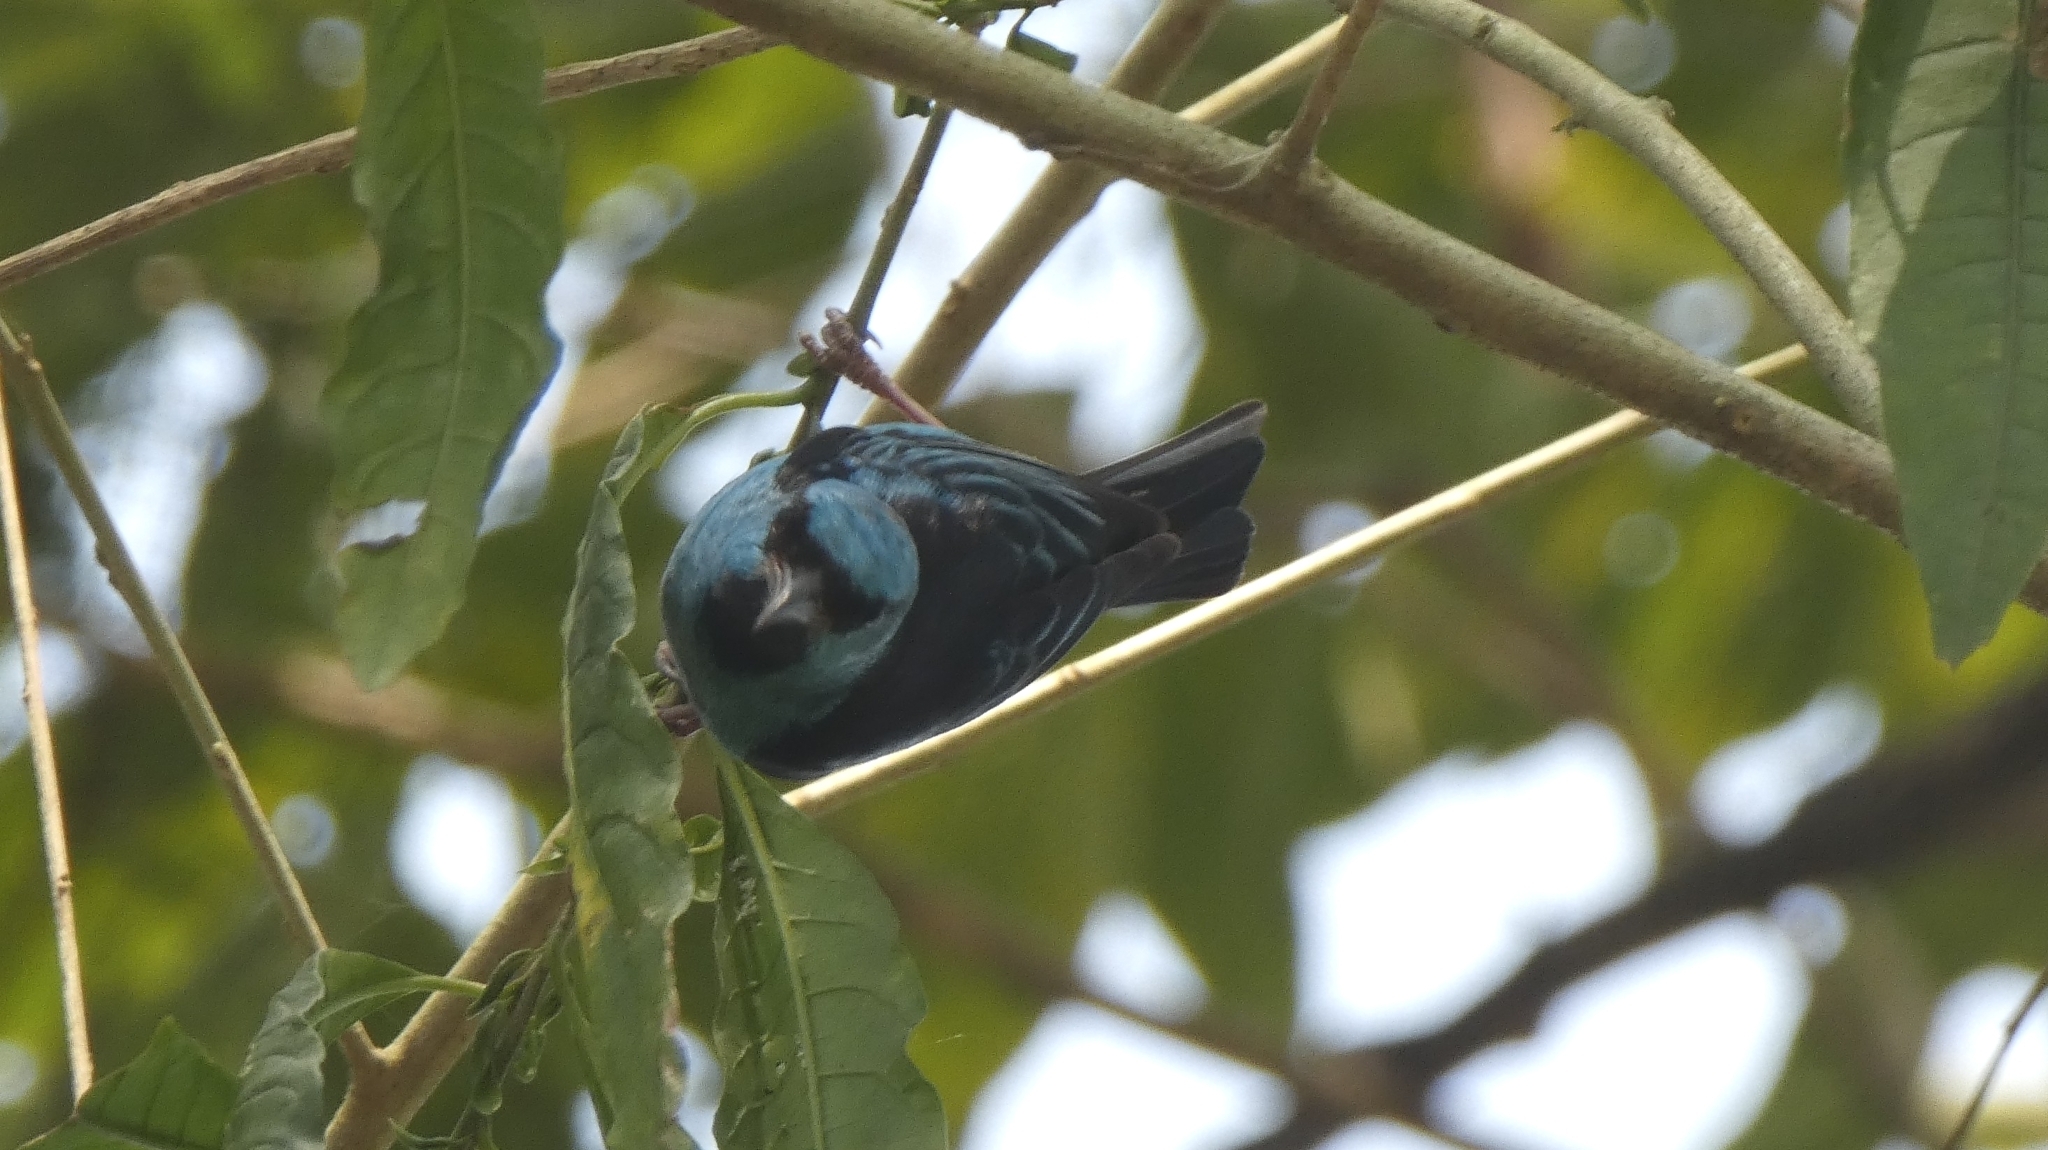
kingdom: Animalia
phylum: Chordata
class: Aves
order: Passeriformes
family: Thraupidae
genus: Dacnis
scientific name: Dacnis cayana
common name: Blue dacnis
